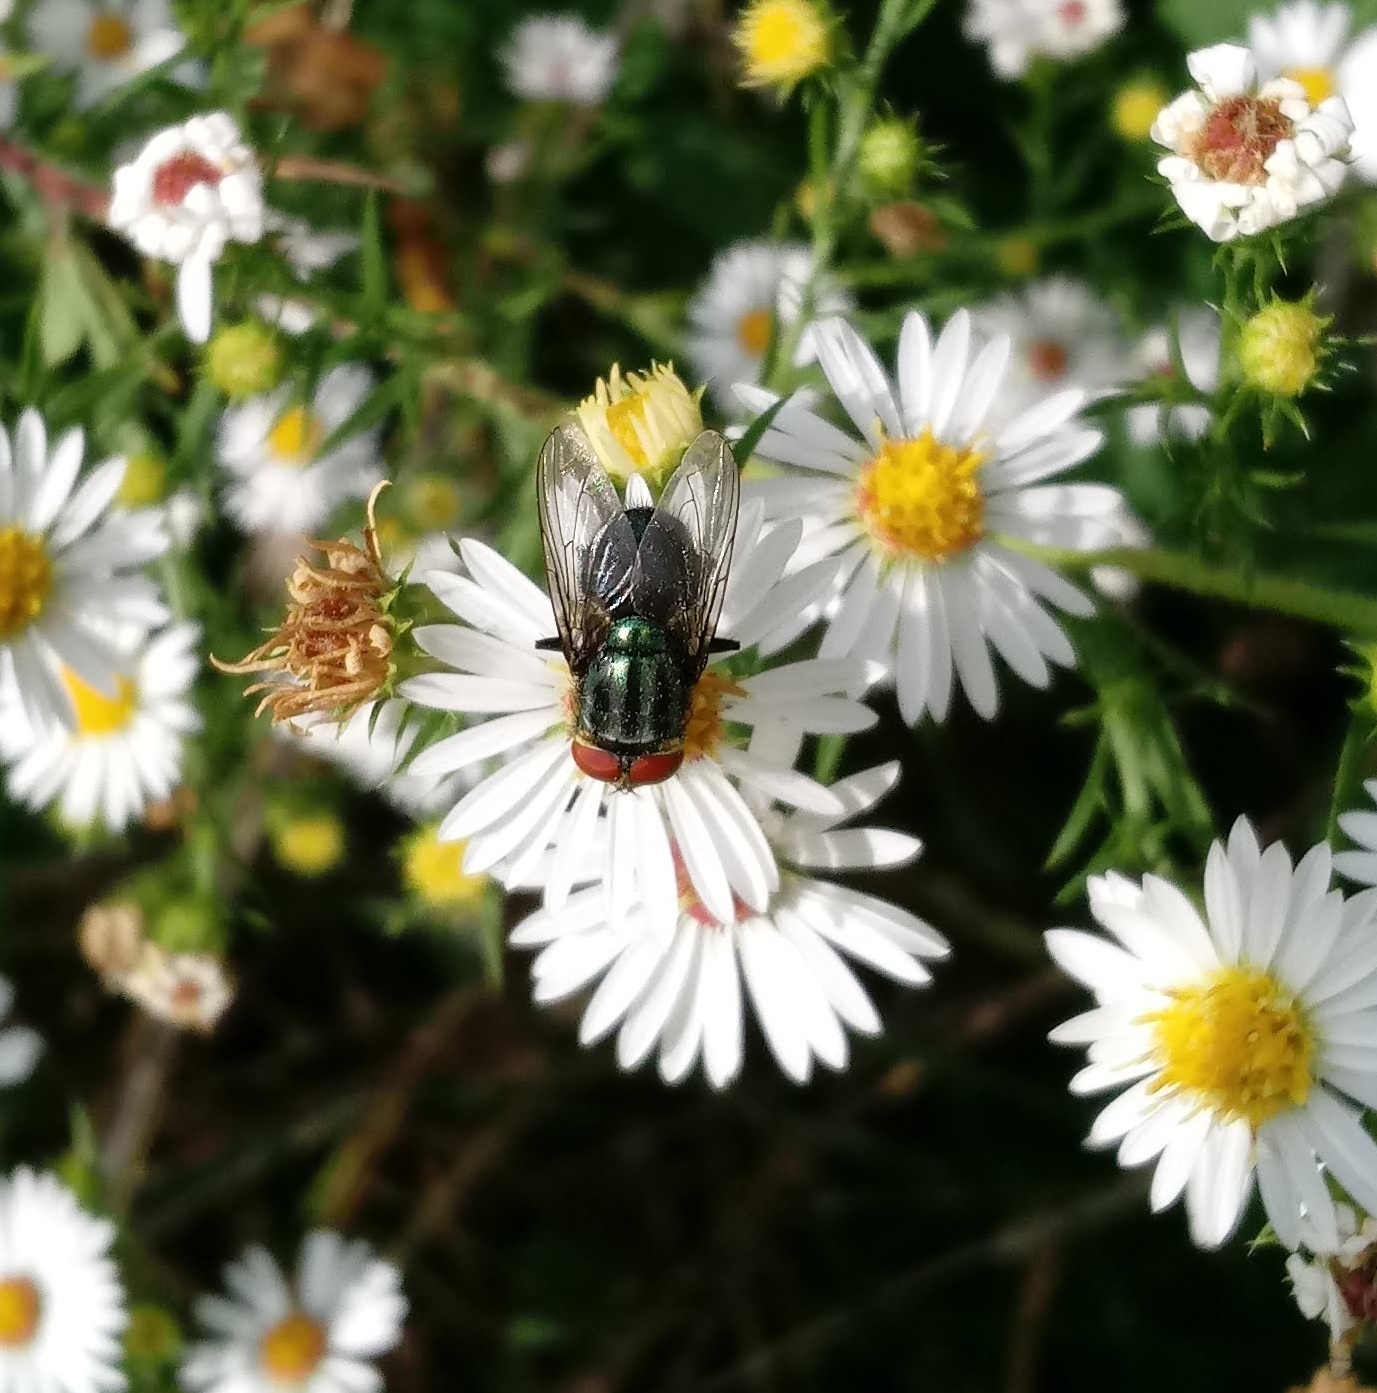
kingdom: Animalia
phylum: Arthropoda
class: Insecta
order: Diptera
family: Calliphoridae
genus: Cochliomyia
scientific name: Cochliomyia macellaria
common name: Secondary screwworm
